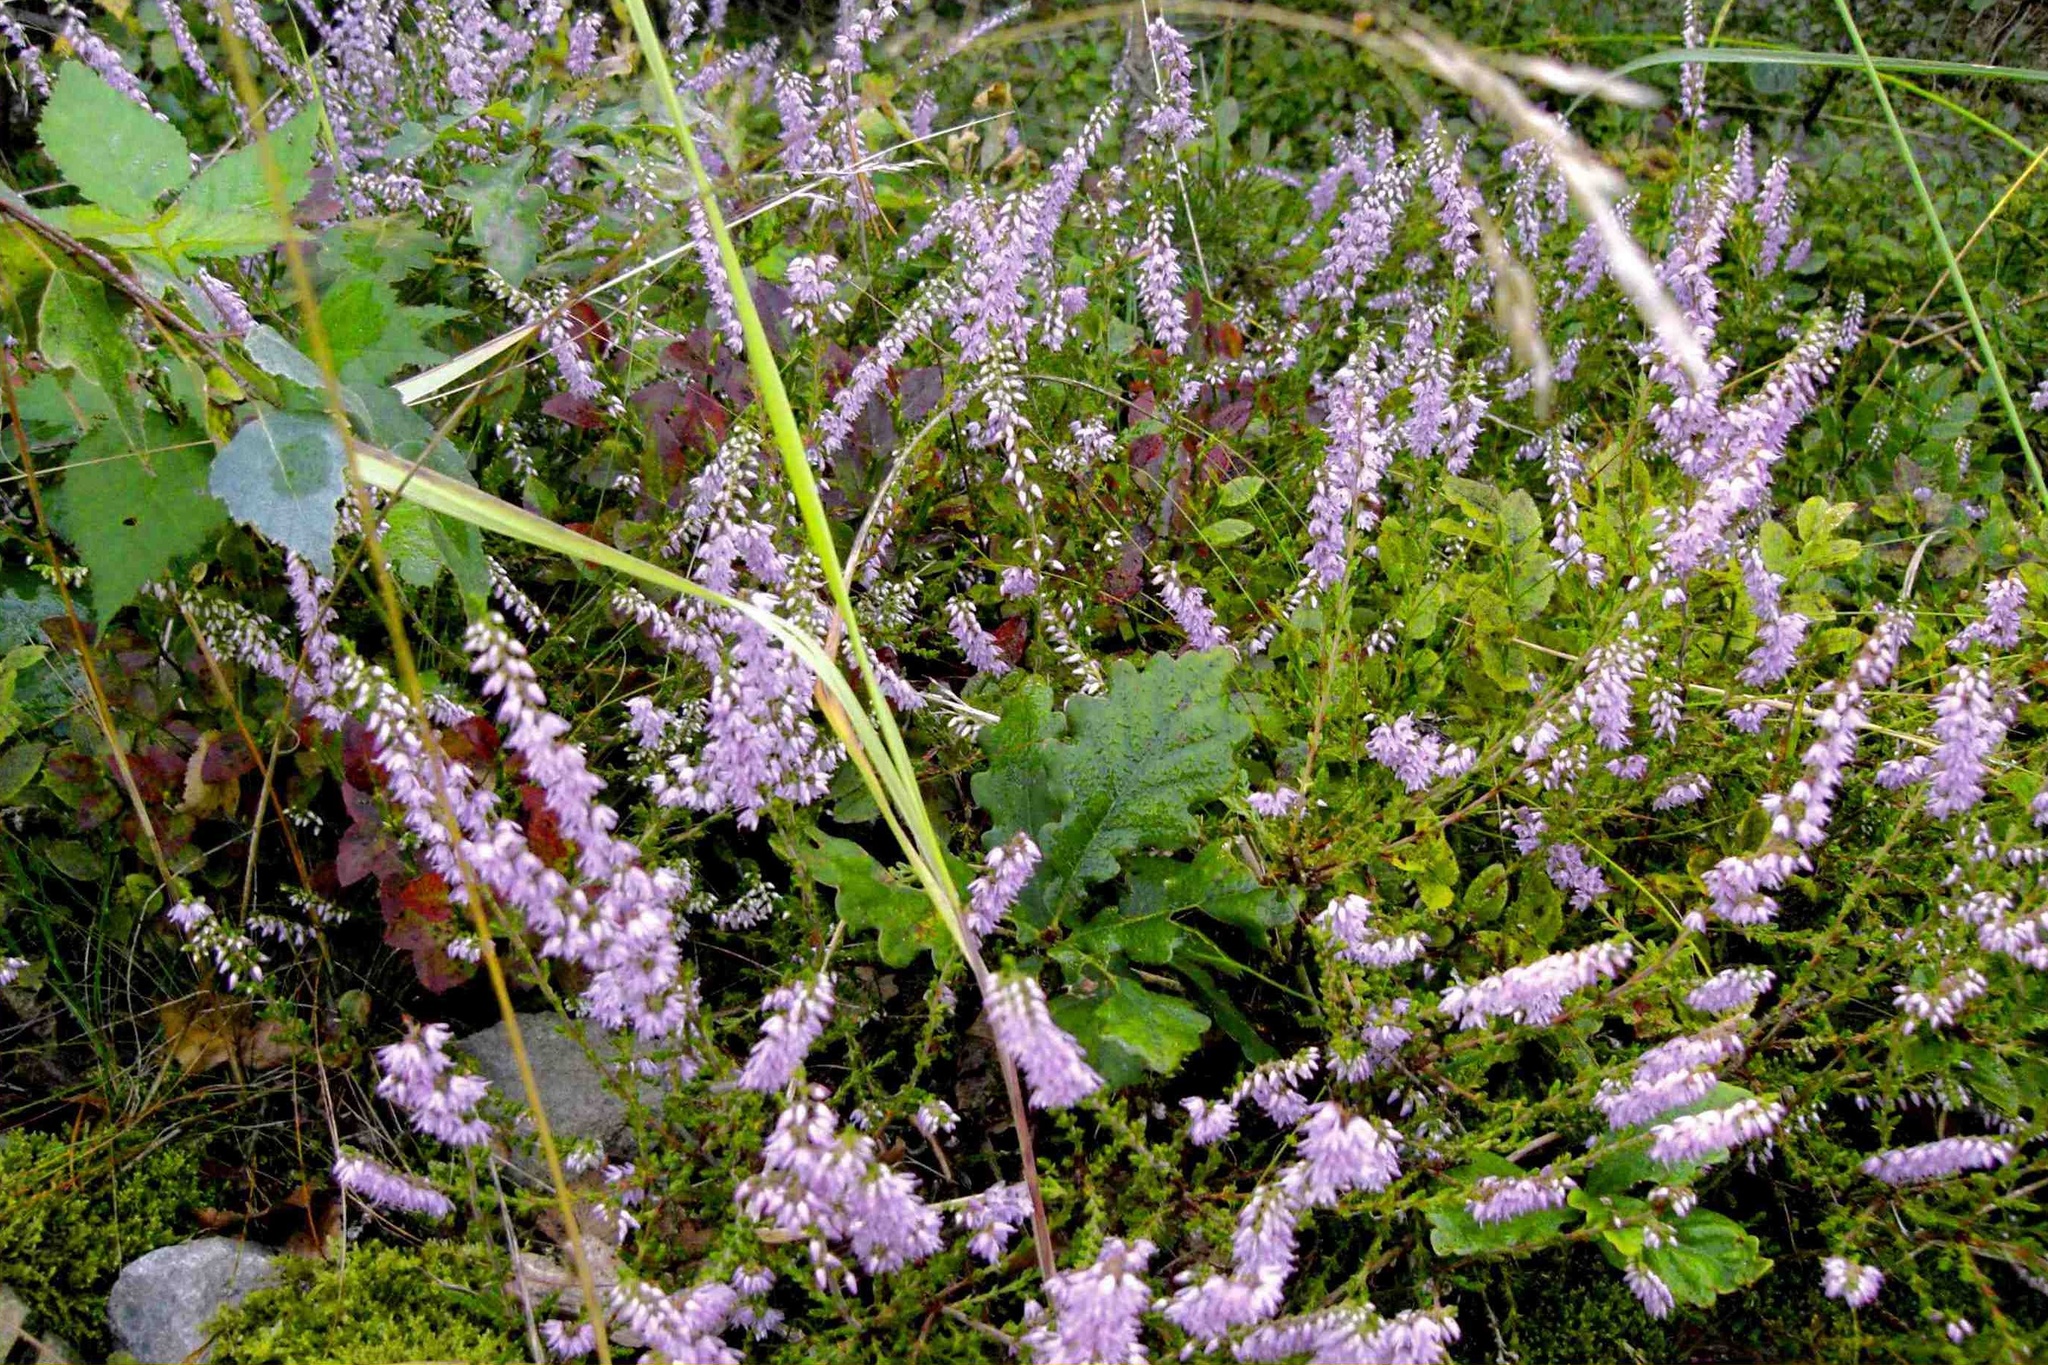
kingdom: Plantae
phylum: Tracheophyta
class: Magnoliopsida
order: Ericales
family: Ericaceae
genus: Calluna
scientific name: Calluna vulgaris
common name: Heather
